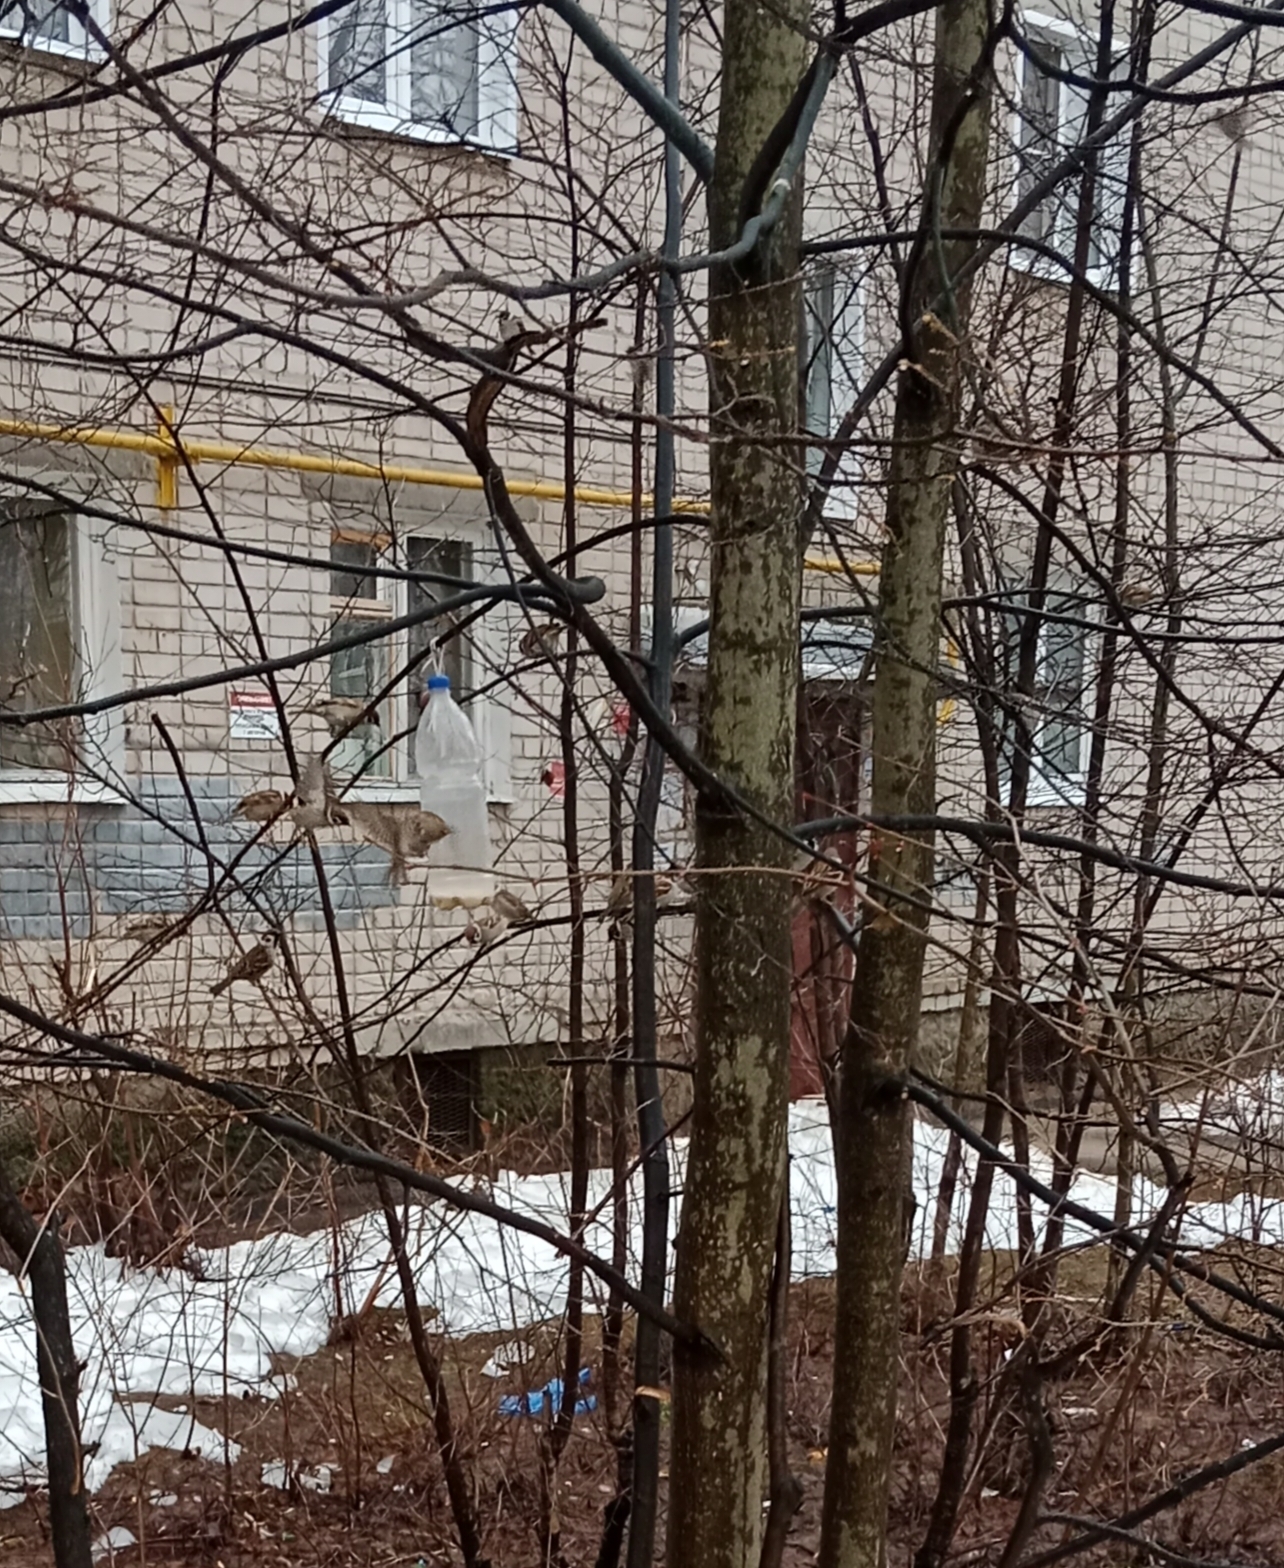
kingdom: Animalia
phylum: Chordata
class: Aves
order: Passeriformes
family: Passeridae
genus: Passer
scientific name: Passer montanus
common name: Eurasian tree sparrow
